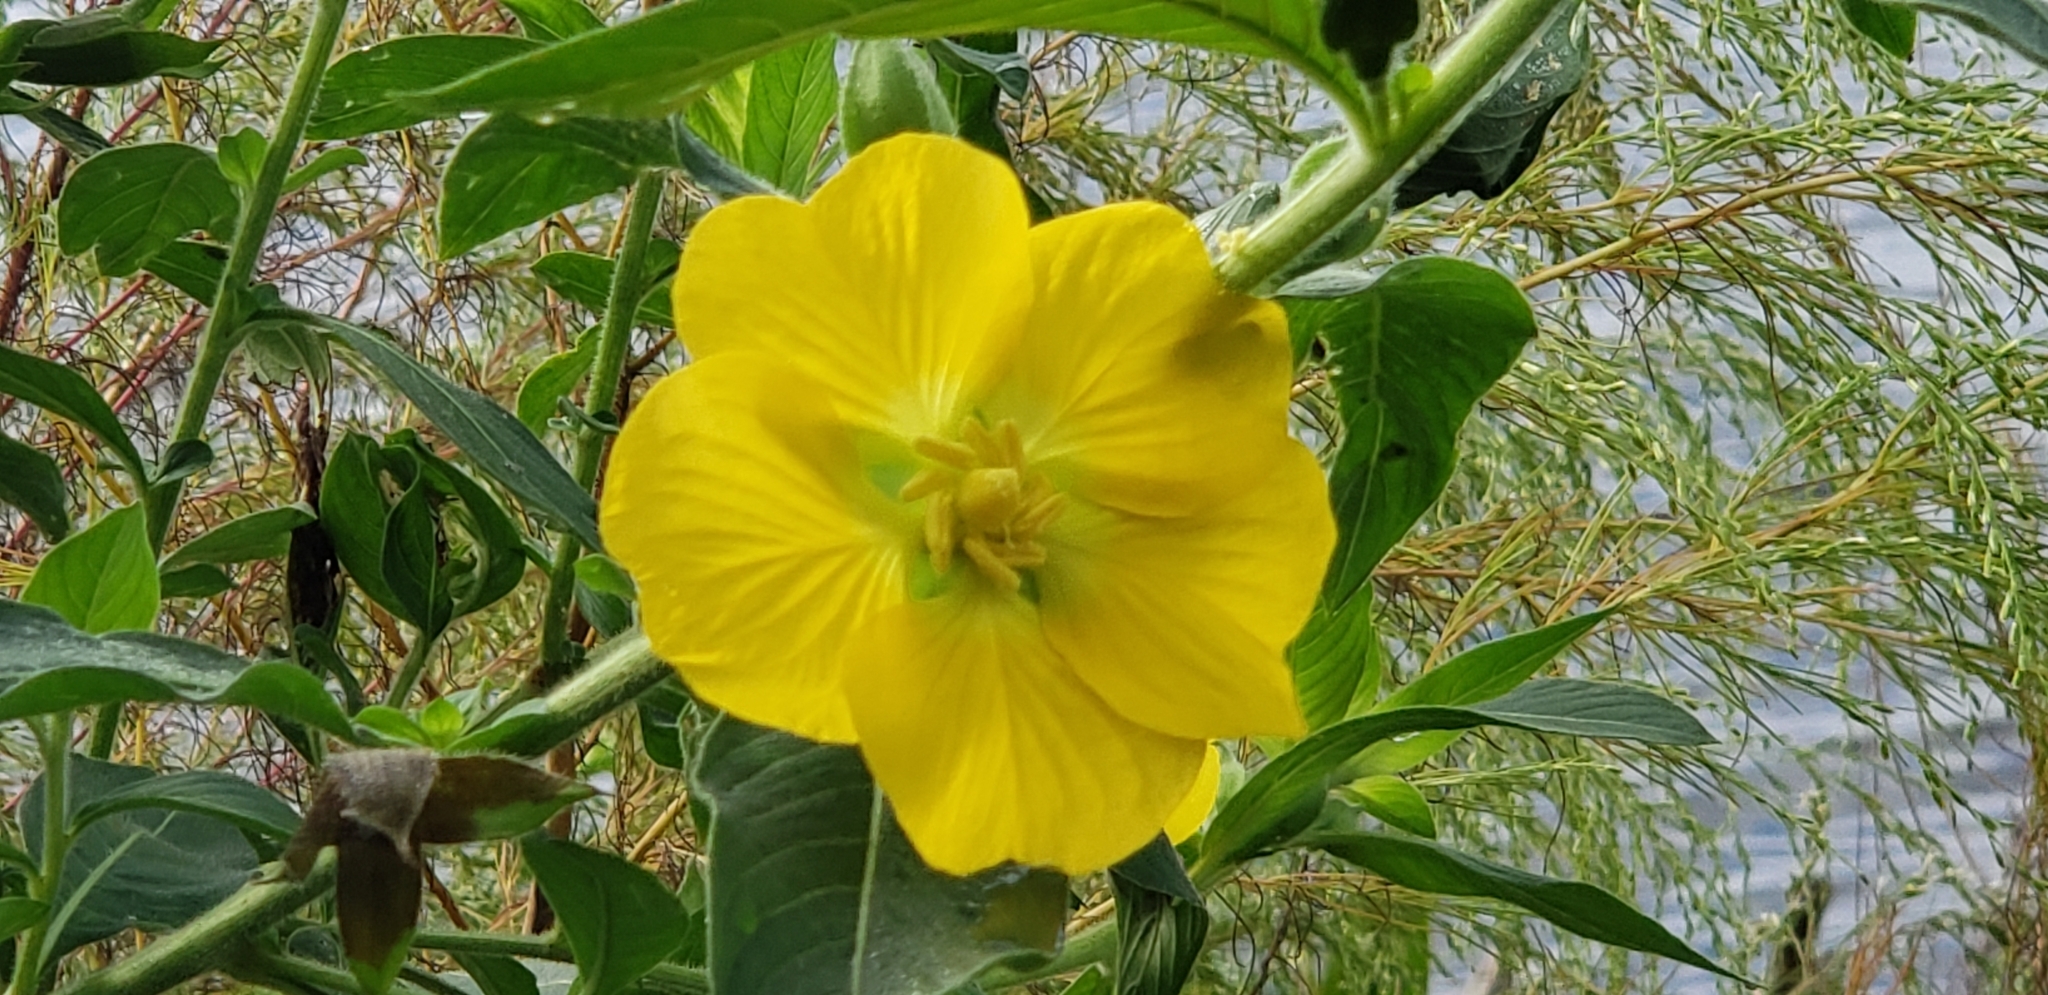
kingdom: Plantae
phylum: Tracheophyta
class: Magnoliopsida
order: Myrtales
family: Onagraceae
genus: Ludwigia
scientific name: Ludwigia peruviana
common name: Peruvian primrose-willow
